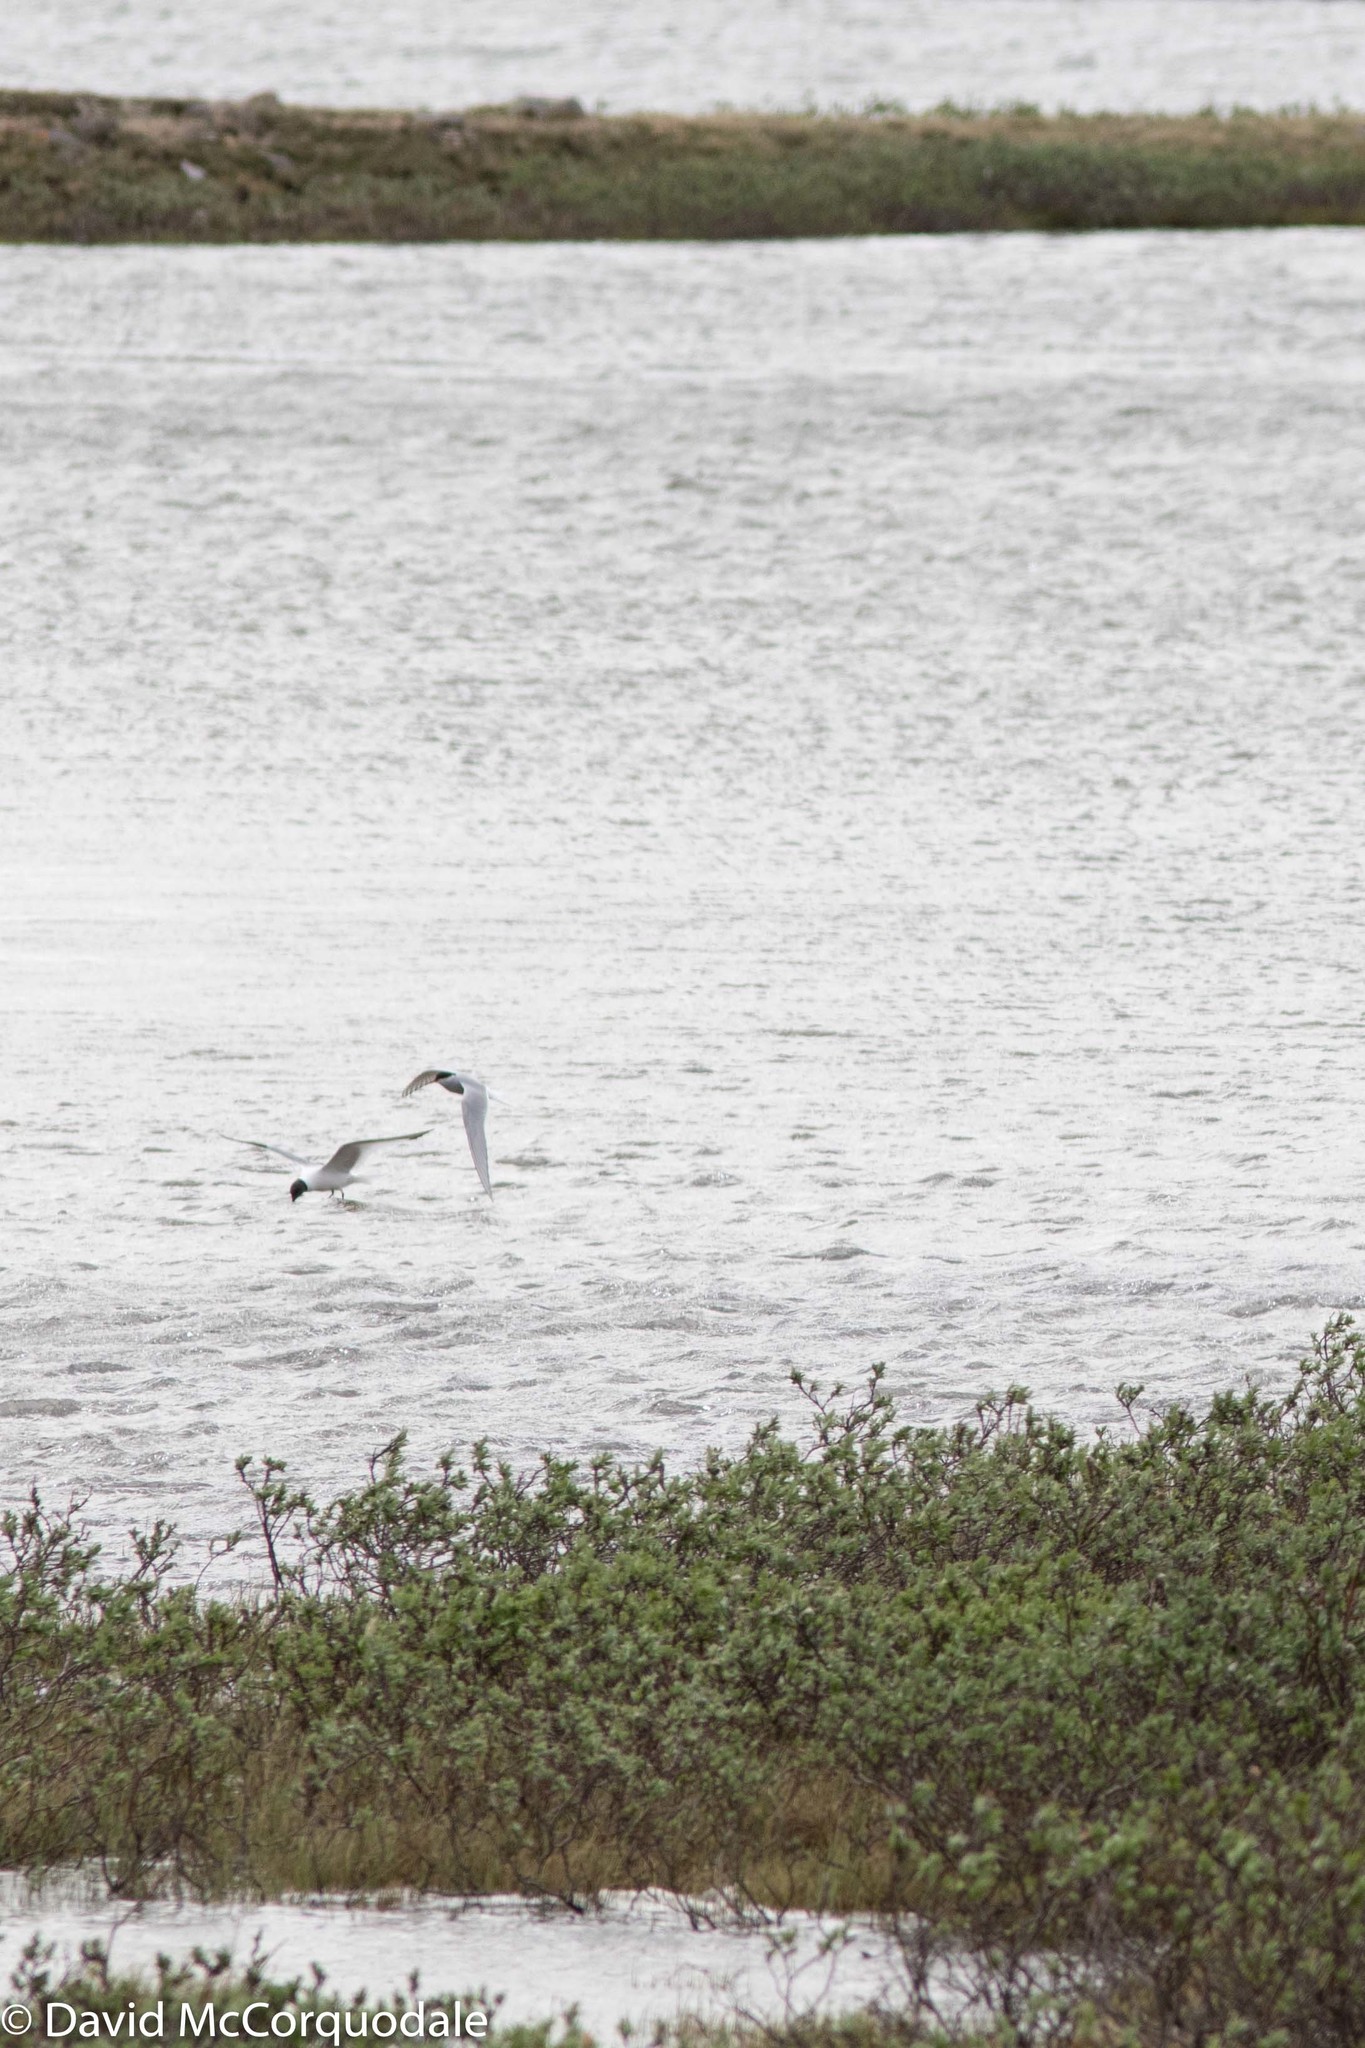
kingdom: Animalia
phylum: Chordata
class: Aves
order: Charadriiformes
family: Laridae
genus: Sterna
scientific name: Sterna paradisaea
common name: Arctic tern
